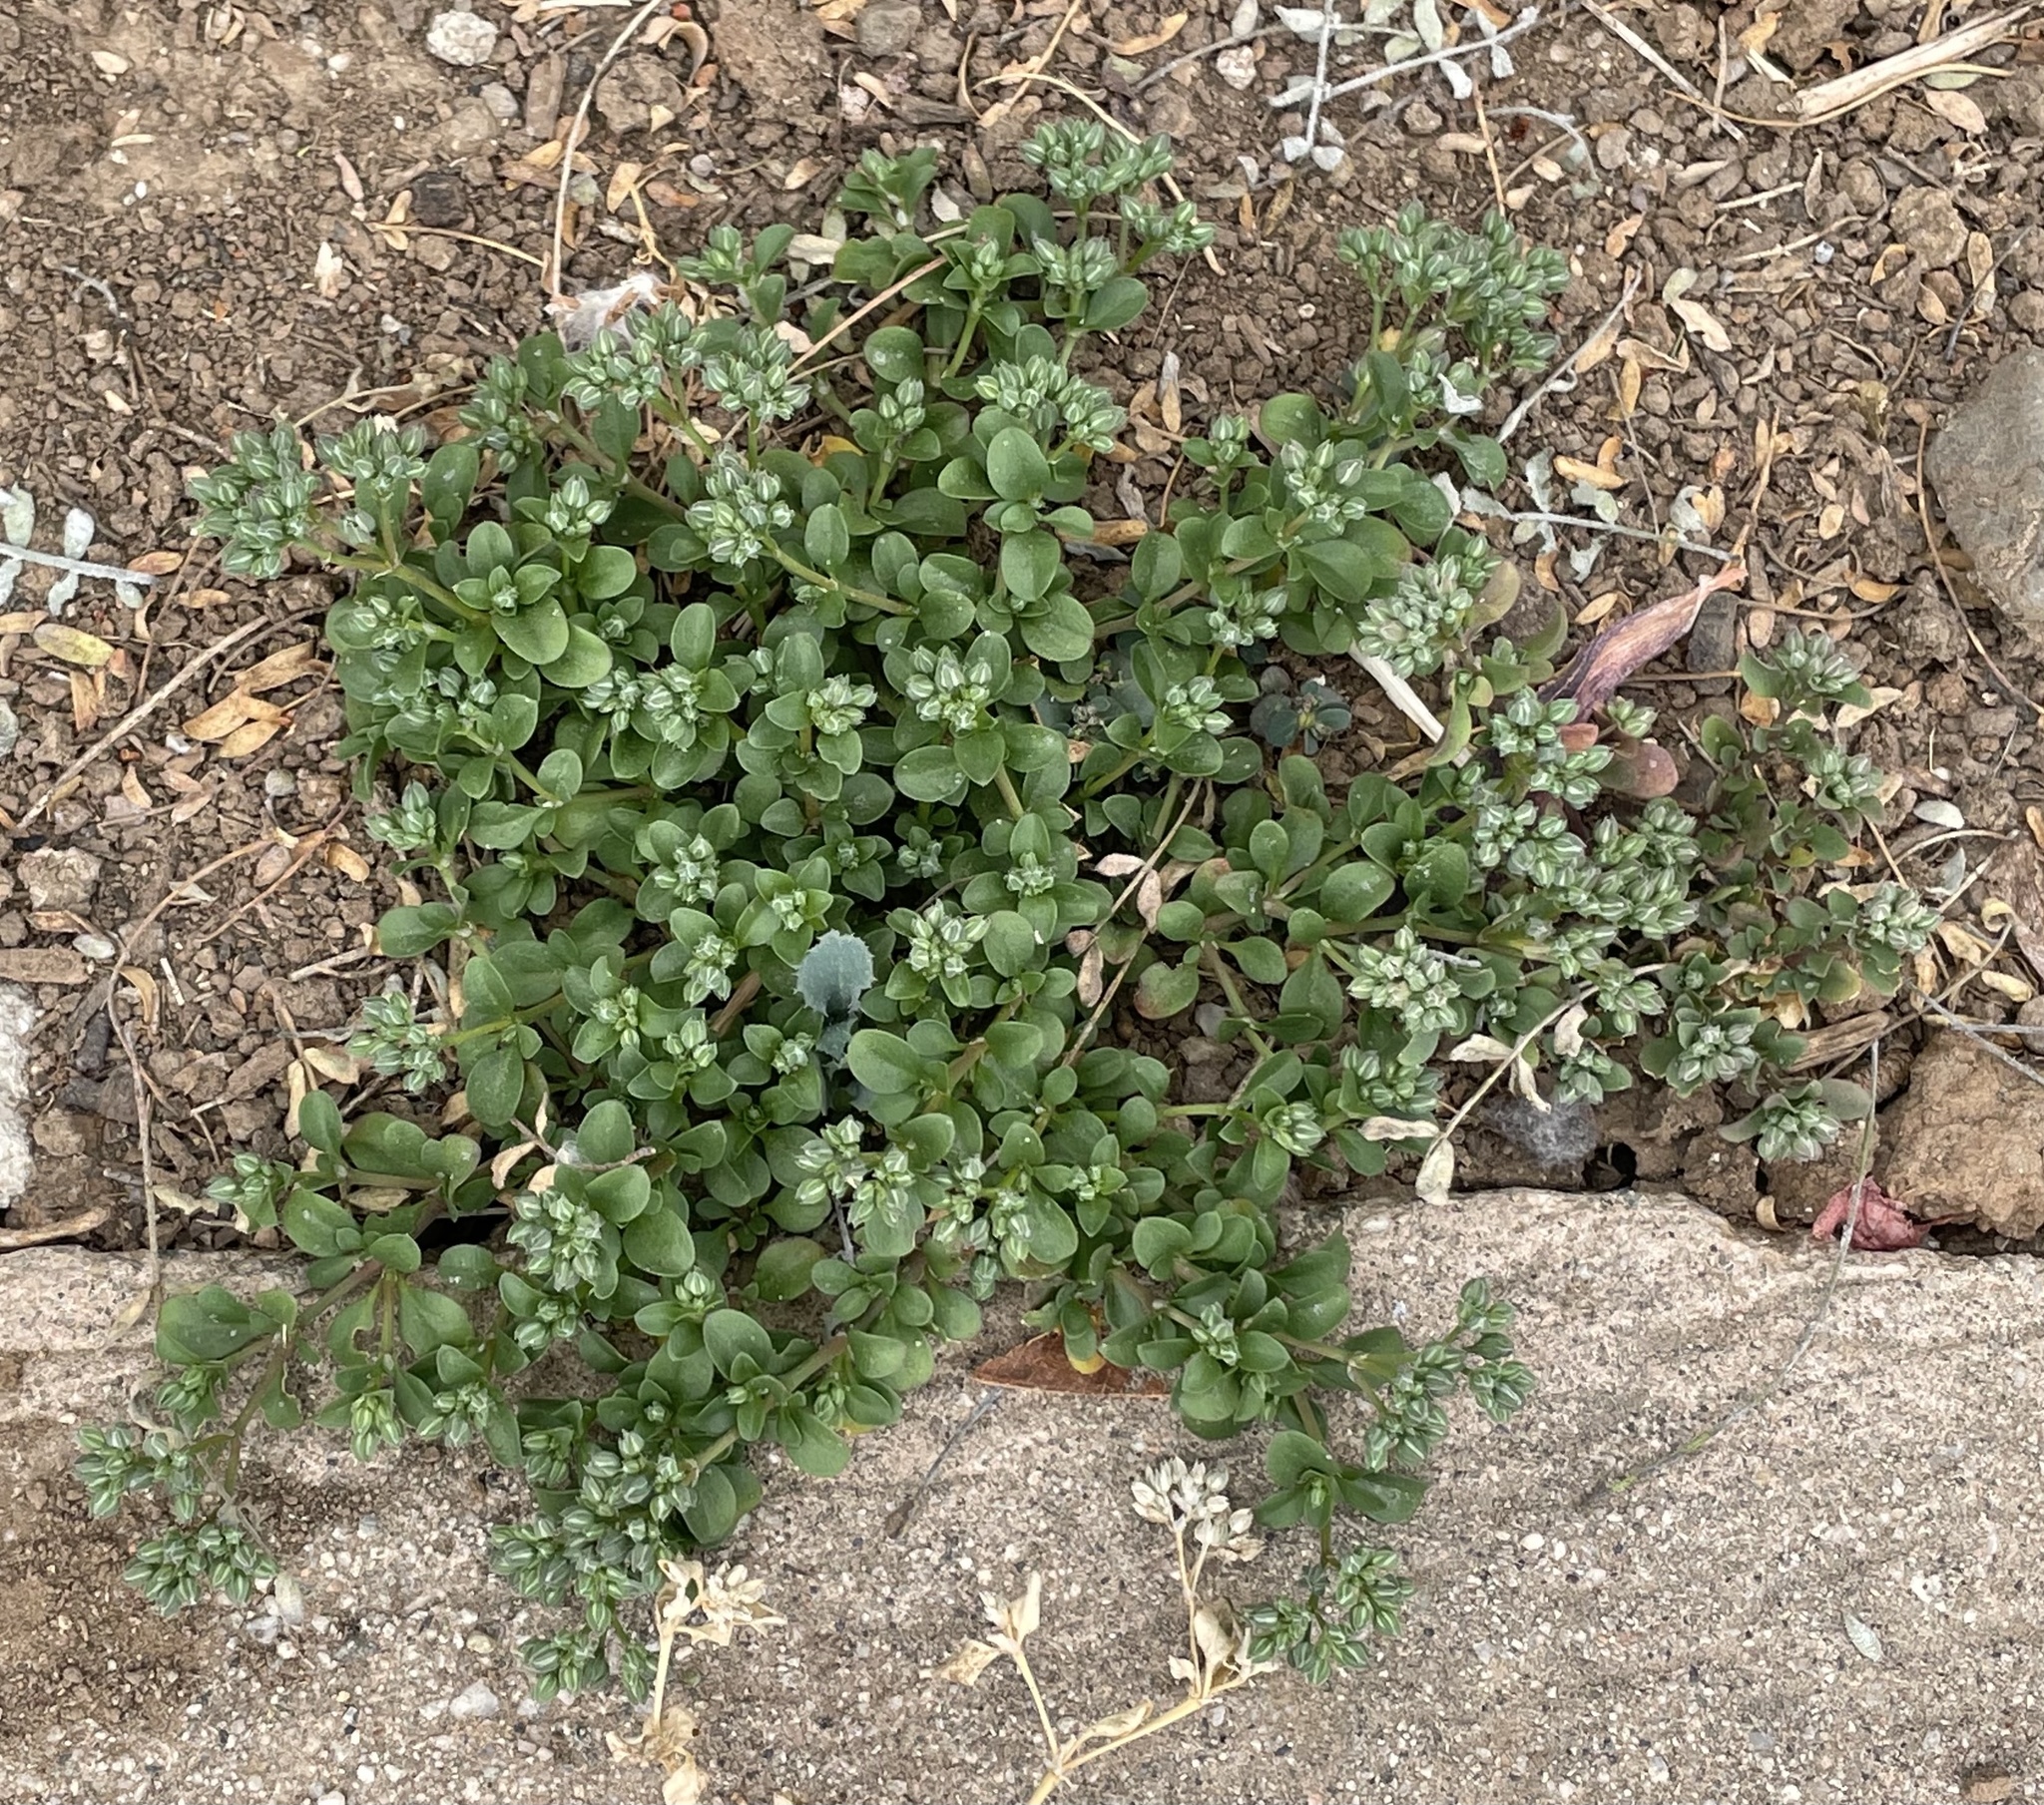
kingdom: Plantae
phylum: Tracheophyta
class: Magnoliopsida
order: Caryophyllales
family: Caryophyllaceae
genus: Polycarpon
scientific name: Polycarpon tetraphyllum
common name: Four-leaved all-seed
